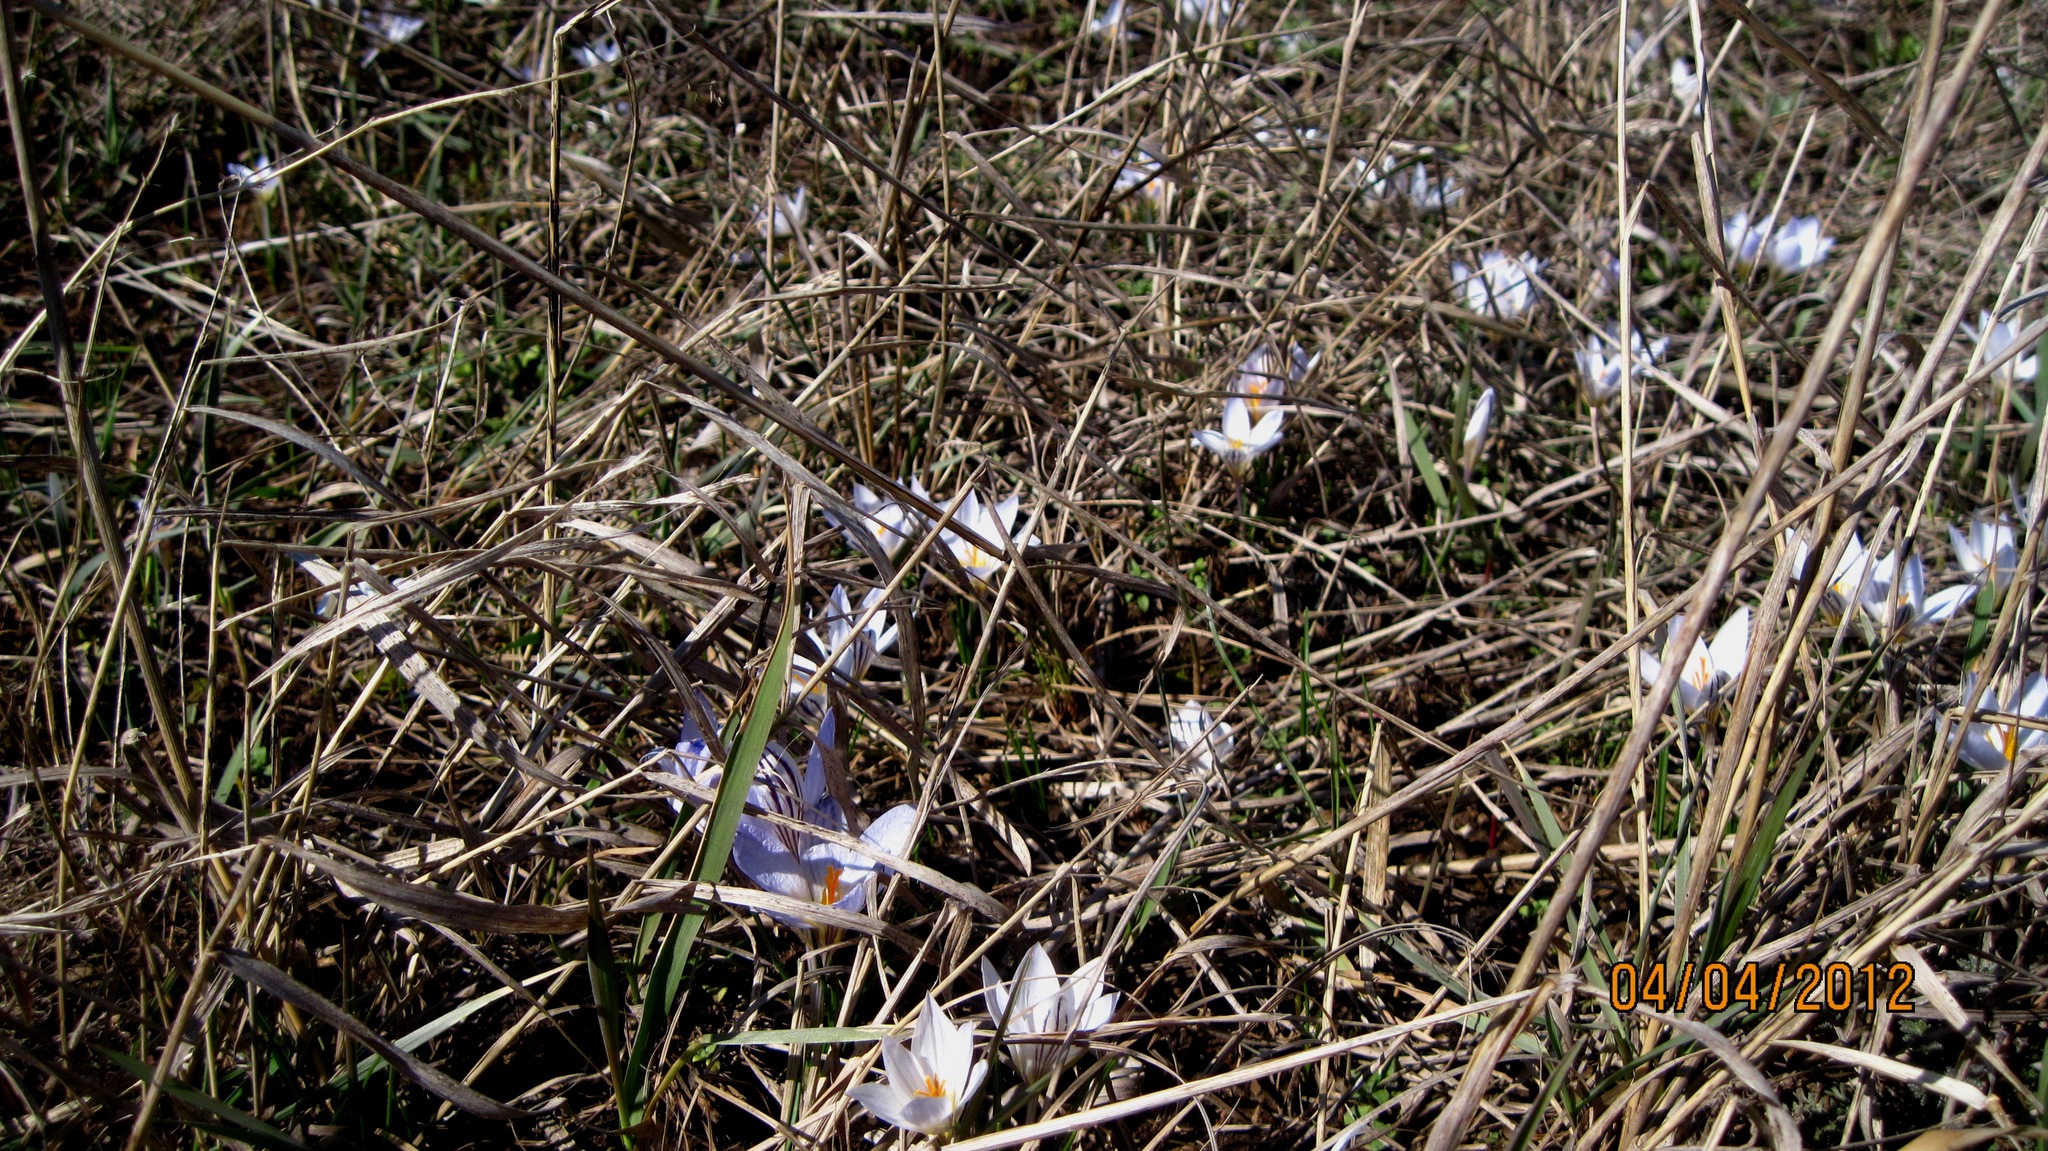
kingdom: Plantae
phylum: Tracheophyta
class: Liliopsida
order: Asparagales
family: Iridaceae
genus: Crocus
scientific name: Crocus reticulatus
